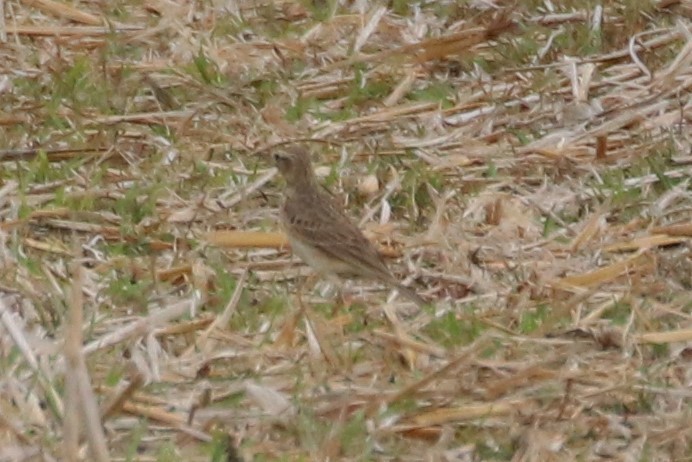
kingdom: Animalia
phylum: Chordata
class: Aves
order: Passeriformes
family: Motacillidae
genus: Anthus
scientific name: Anthus rufulus
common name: Paddyfield pipit
